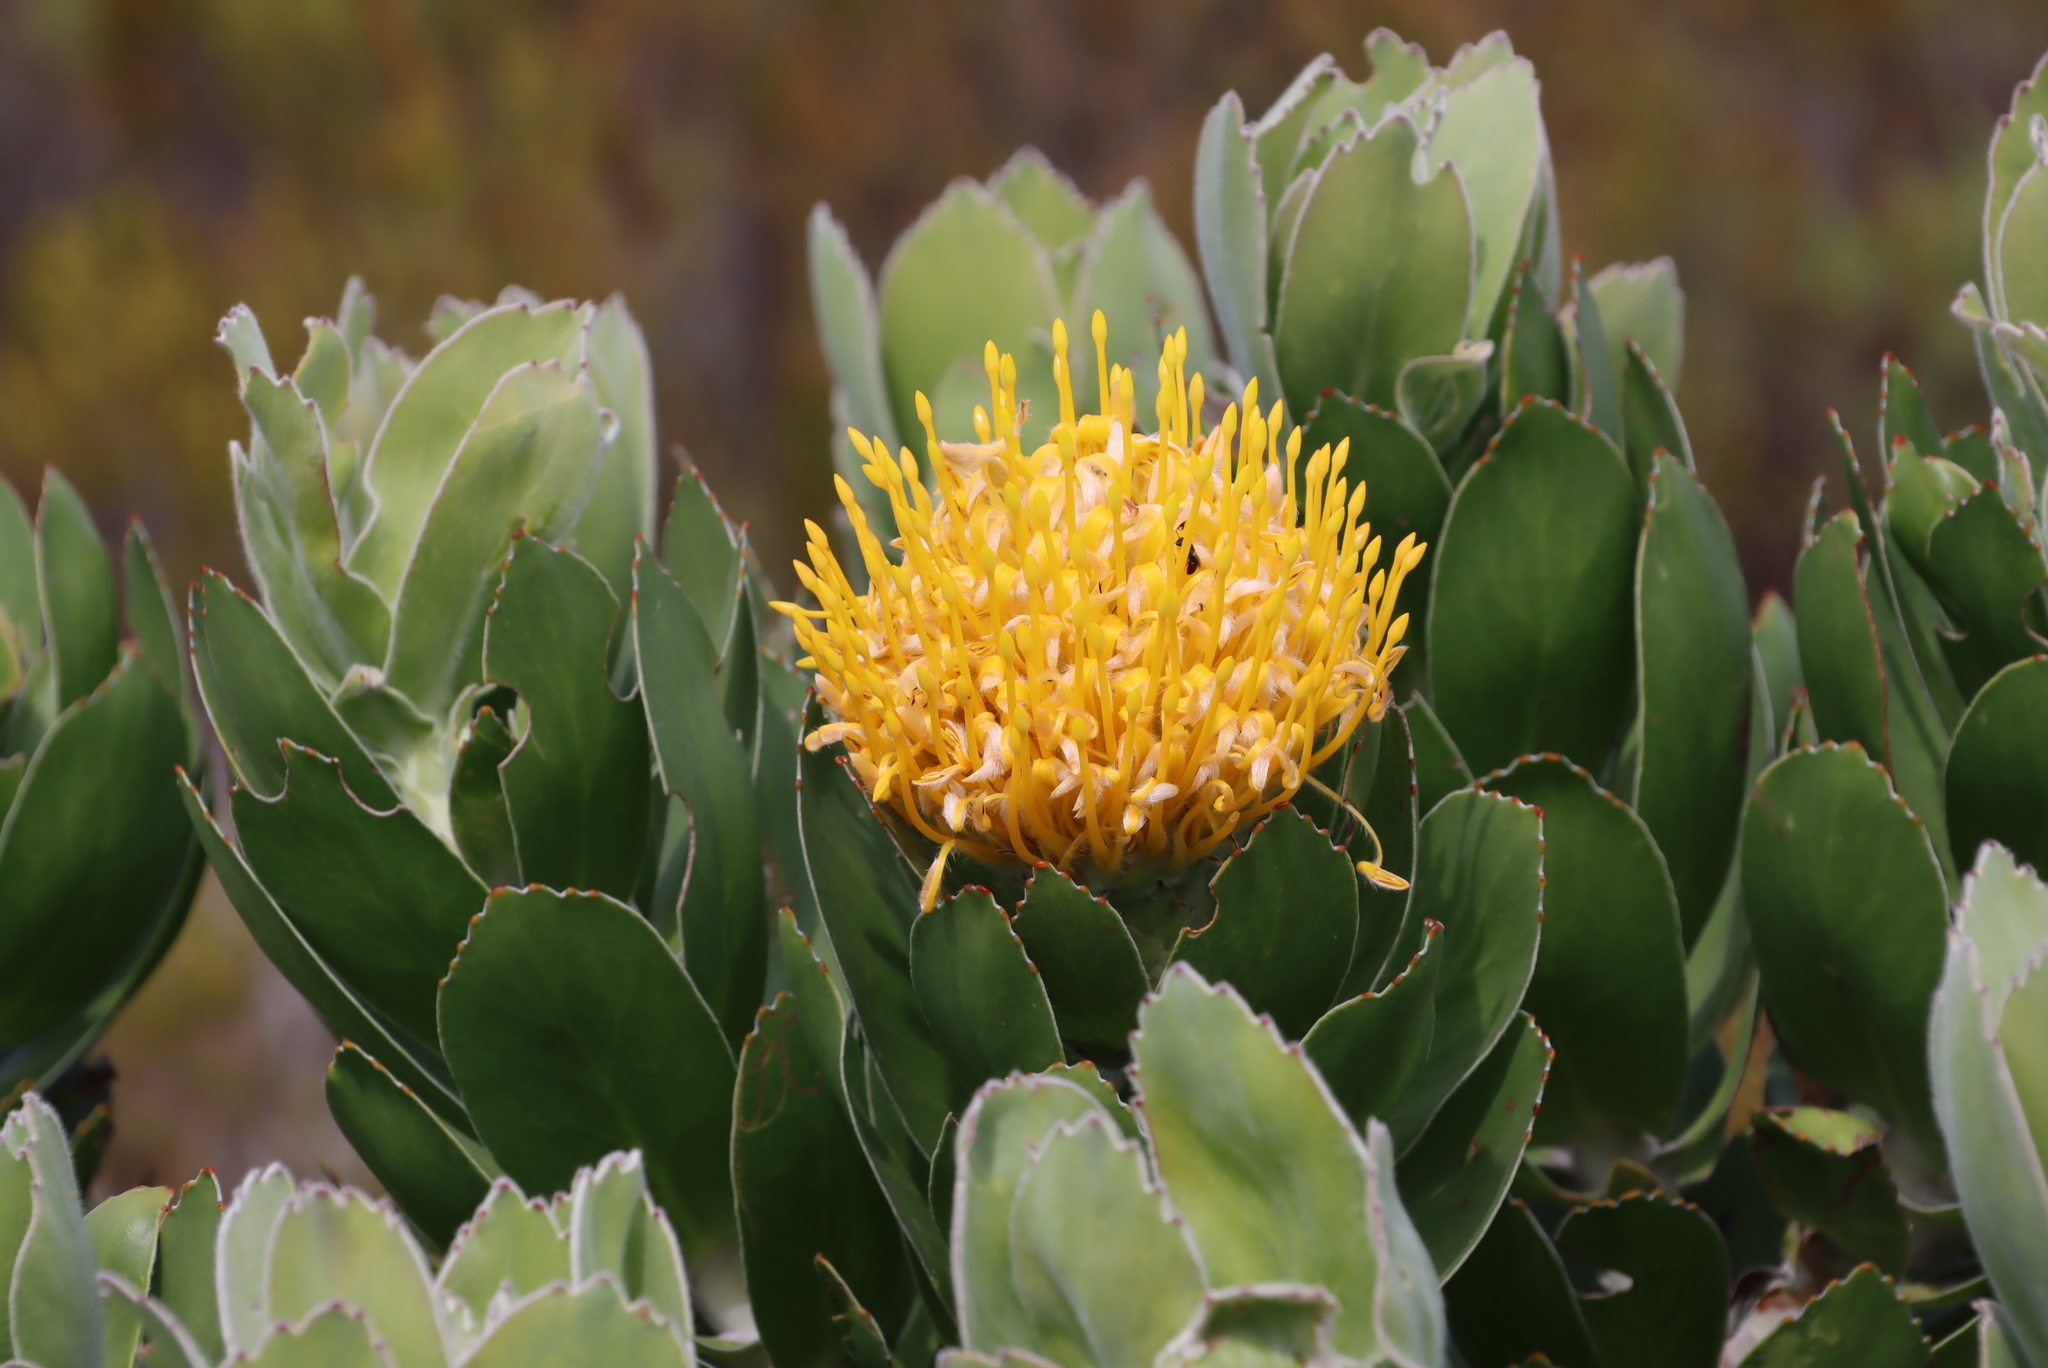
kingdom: Plantae
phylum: Tracheophyta
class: Magnoliopsida
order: Proteales
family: Proteaceae
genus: Leucospermum
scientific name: Leucospermum conocarpodendron
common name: Tree pincushion
